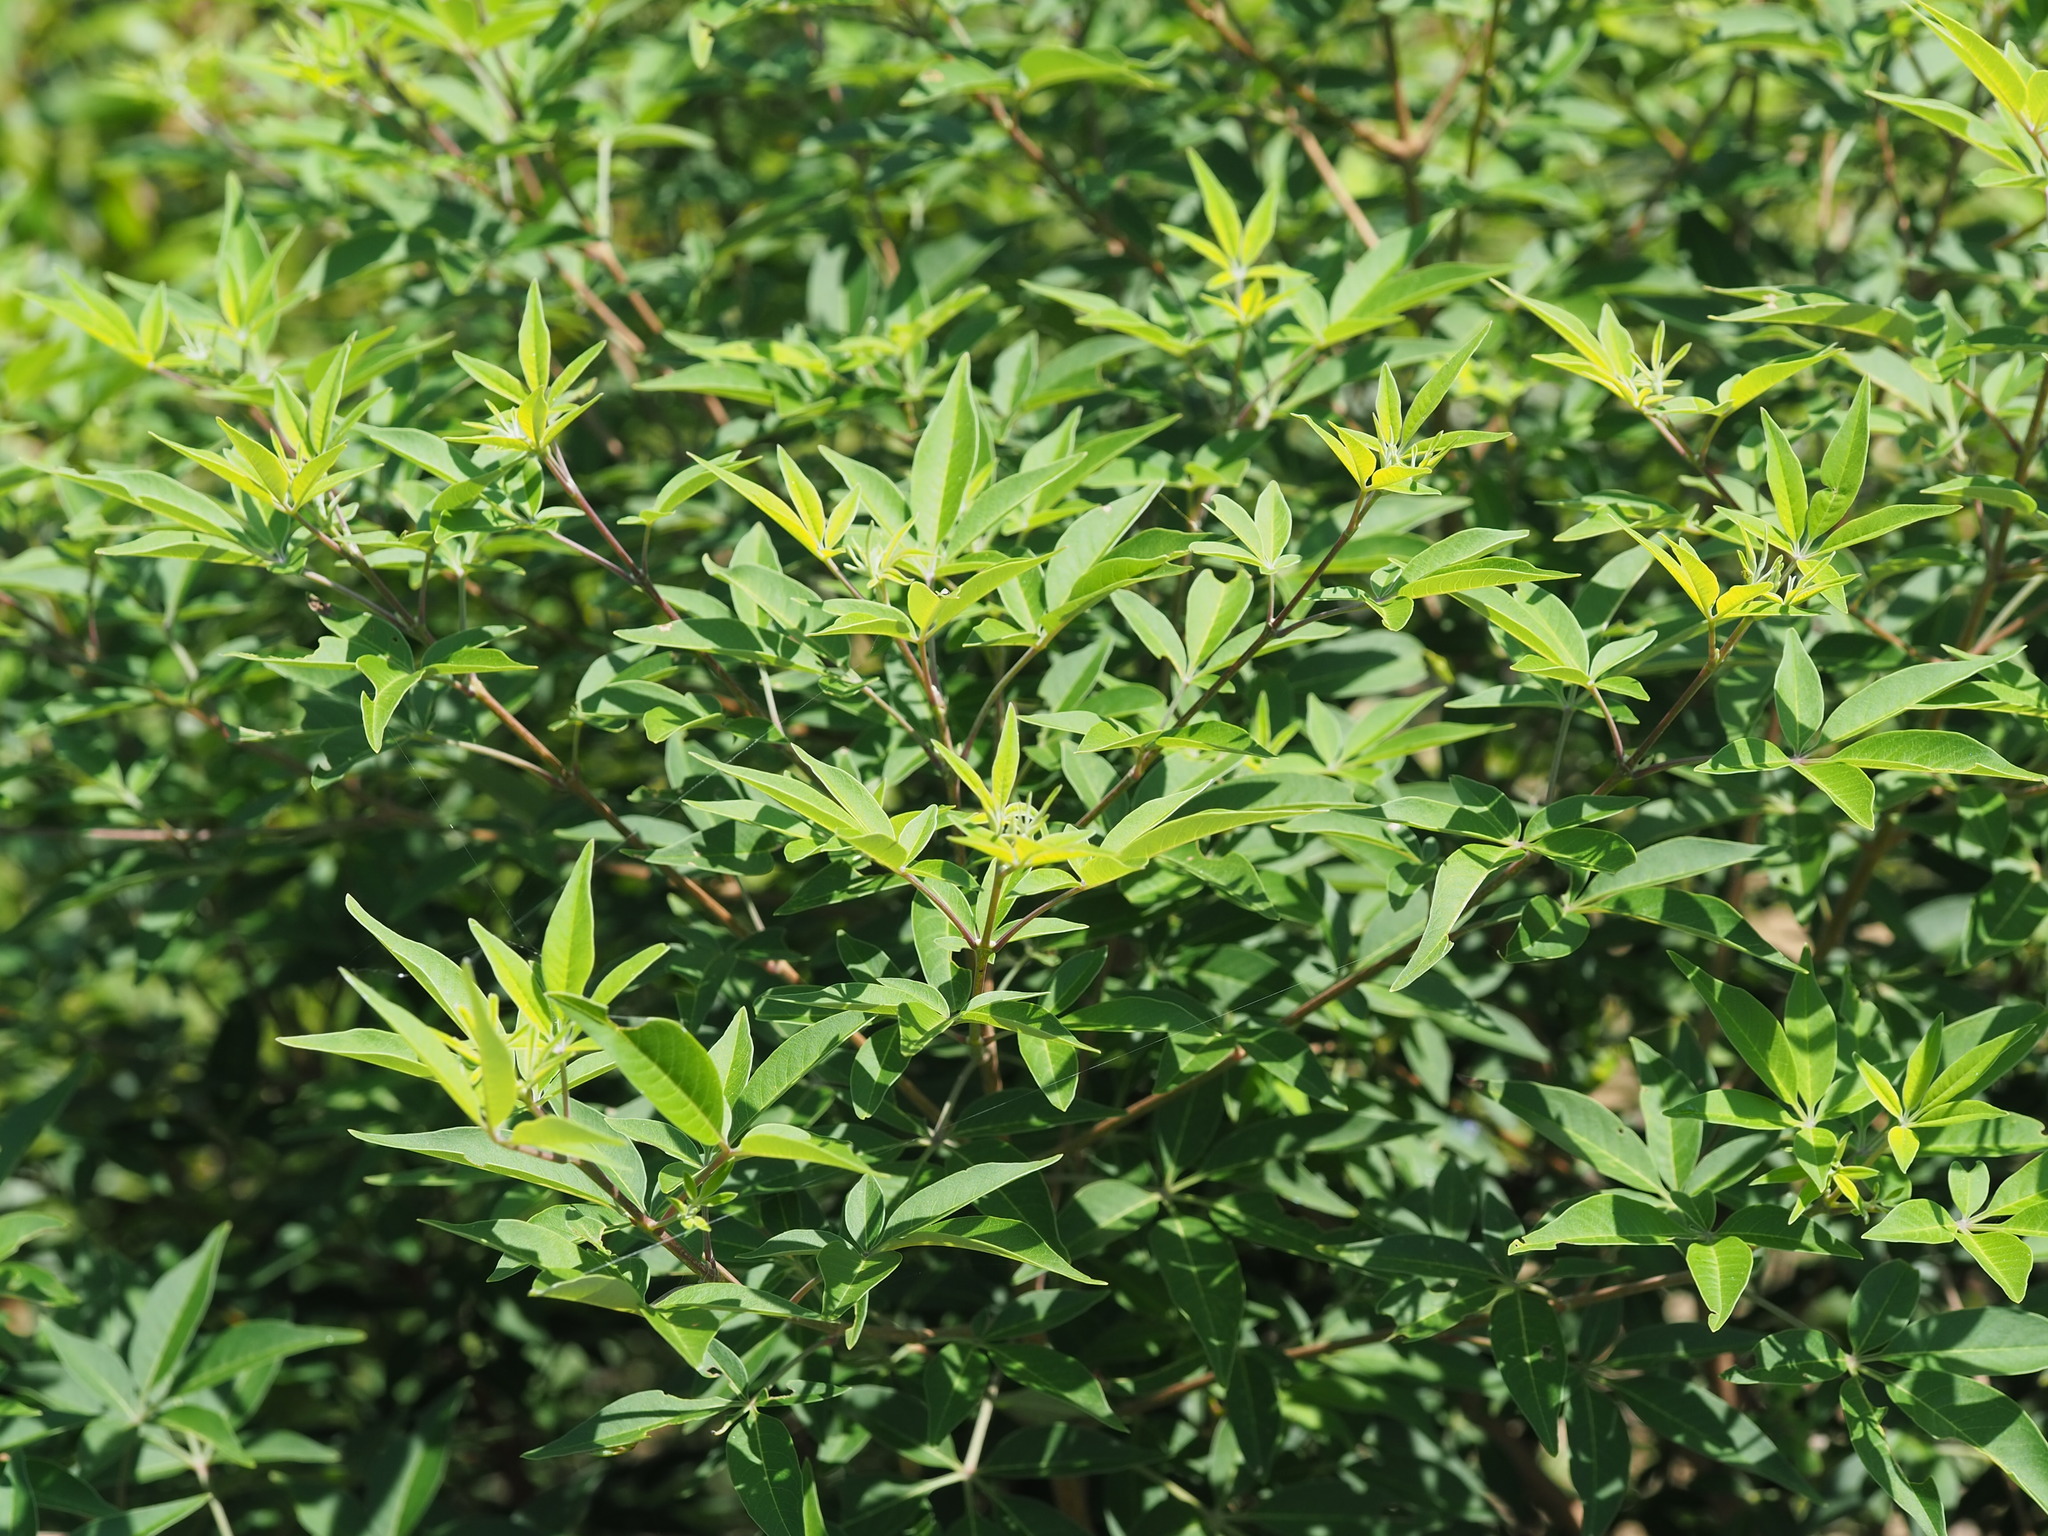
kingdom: Plantae
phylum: Tracheophyta
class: Magnoliopsida
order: Lamiales
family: Lamiaceae
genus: Vitex
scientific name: Vitex negundo
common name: Chinese chastetree
